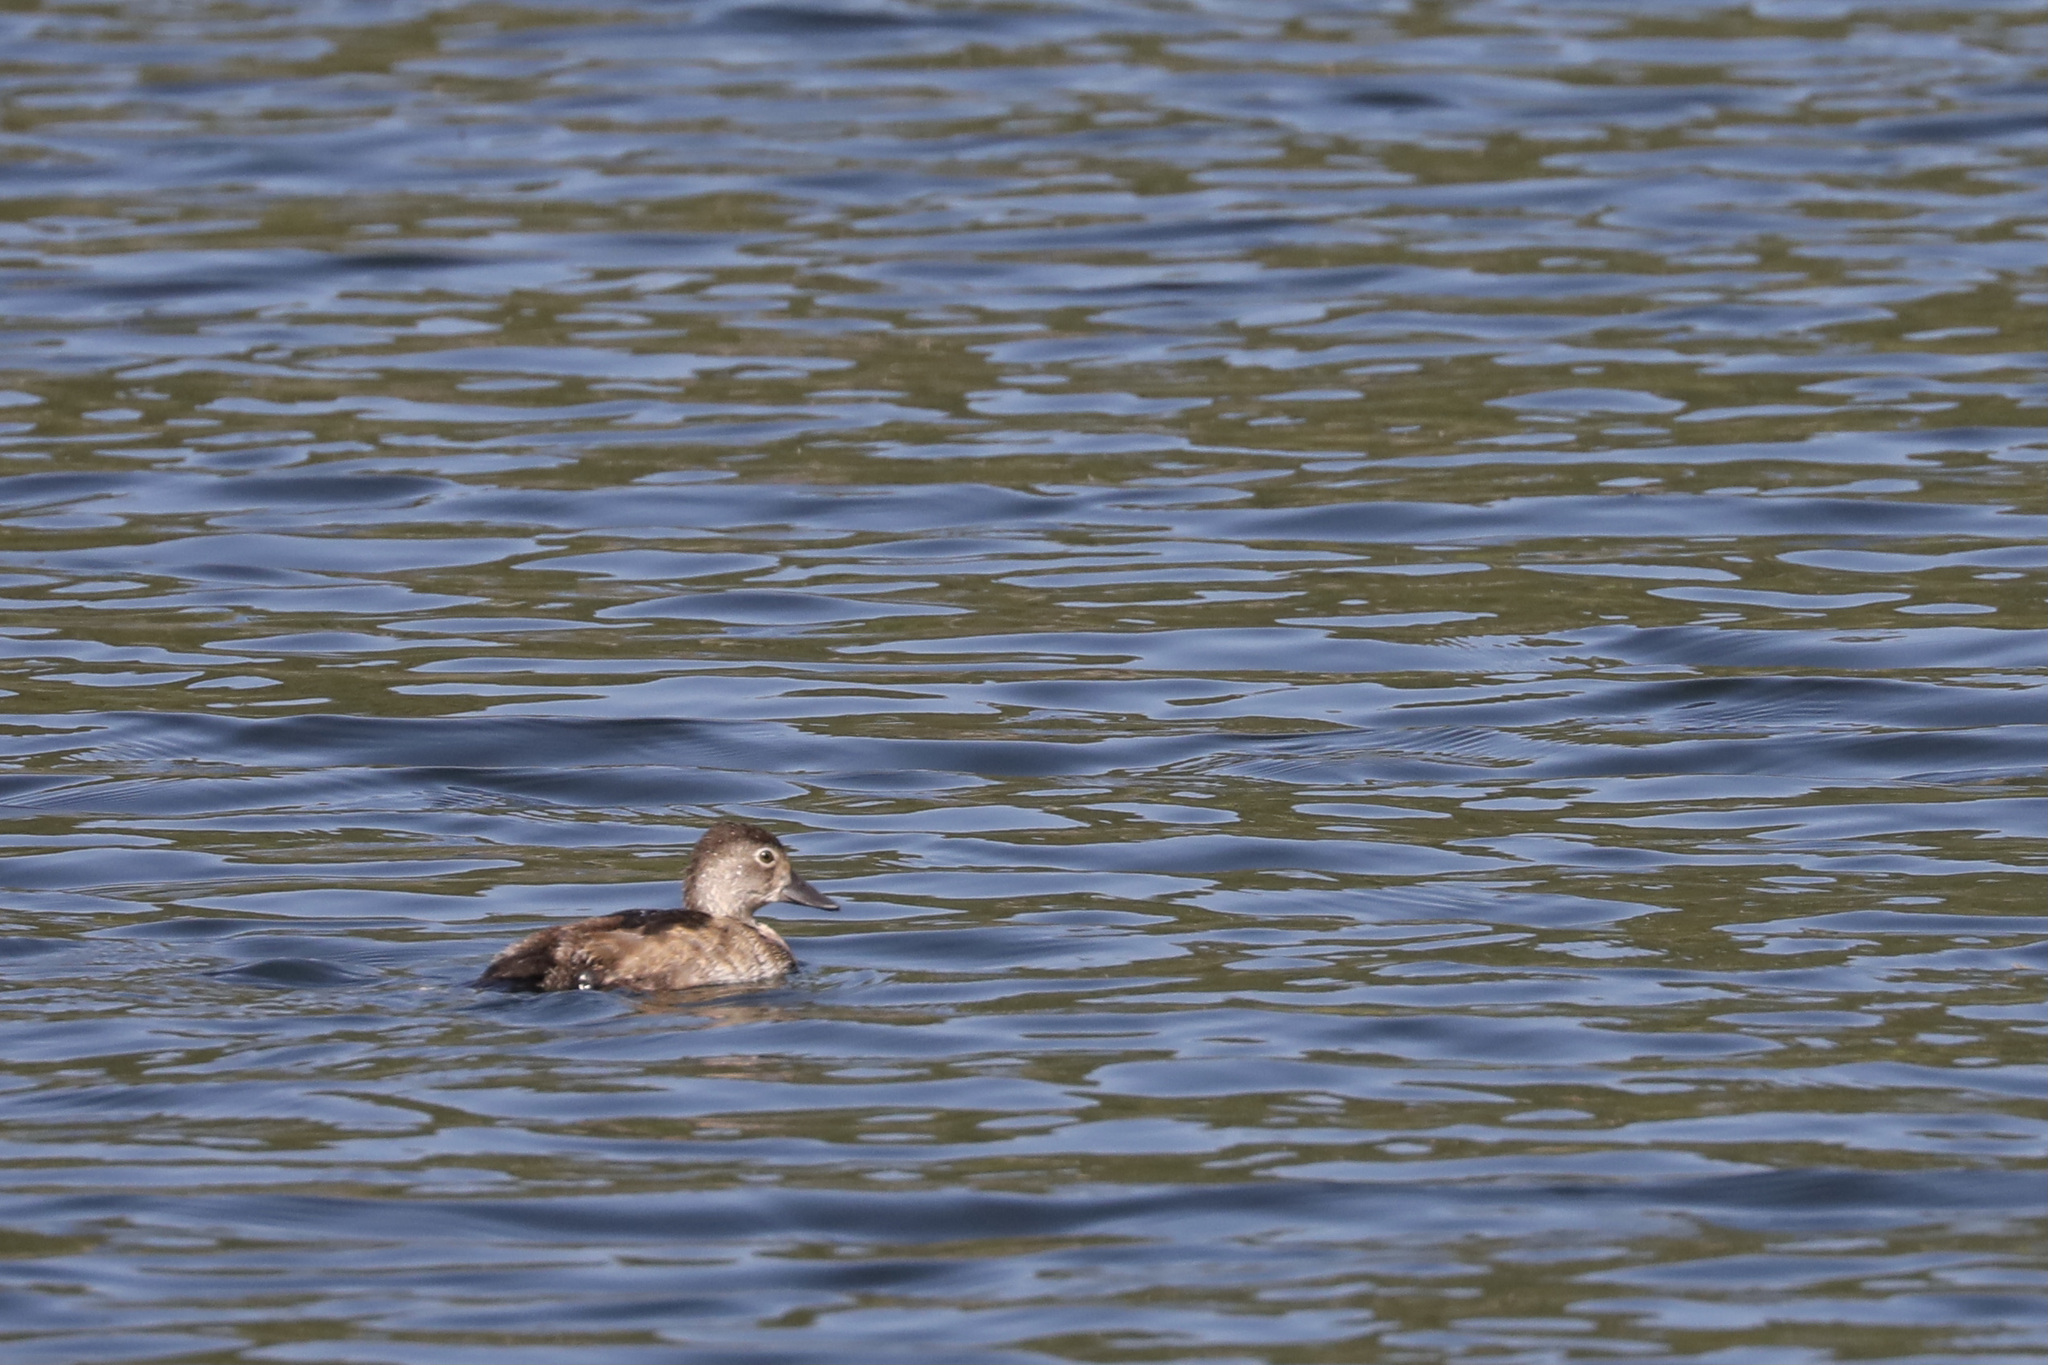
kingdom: Animalia
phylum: Chordata
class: Aves
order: Anseriformes
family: Anatidae
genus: Aythya
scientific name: Aythya collaris
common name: Ring-necked duck
